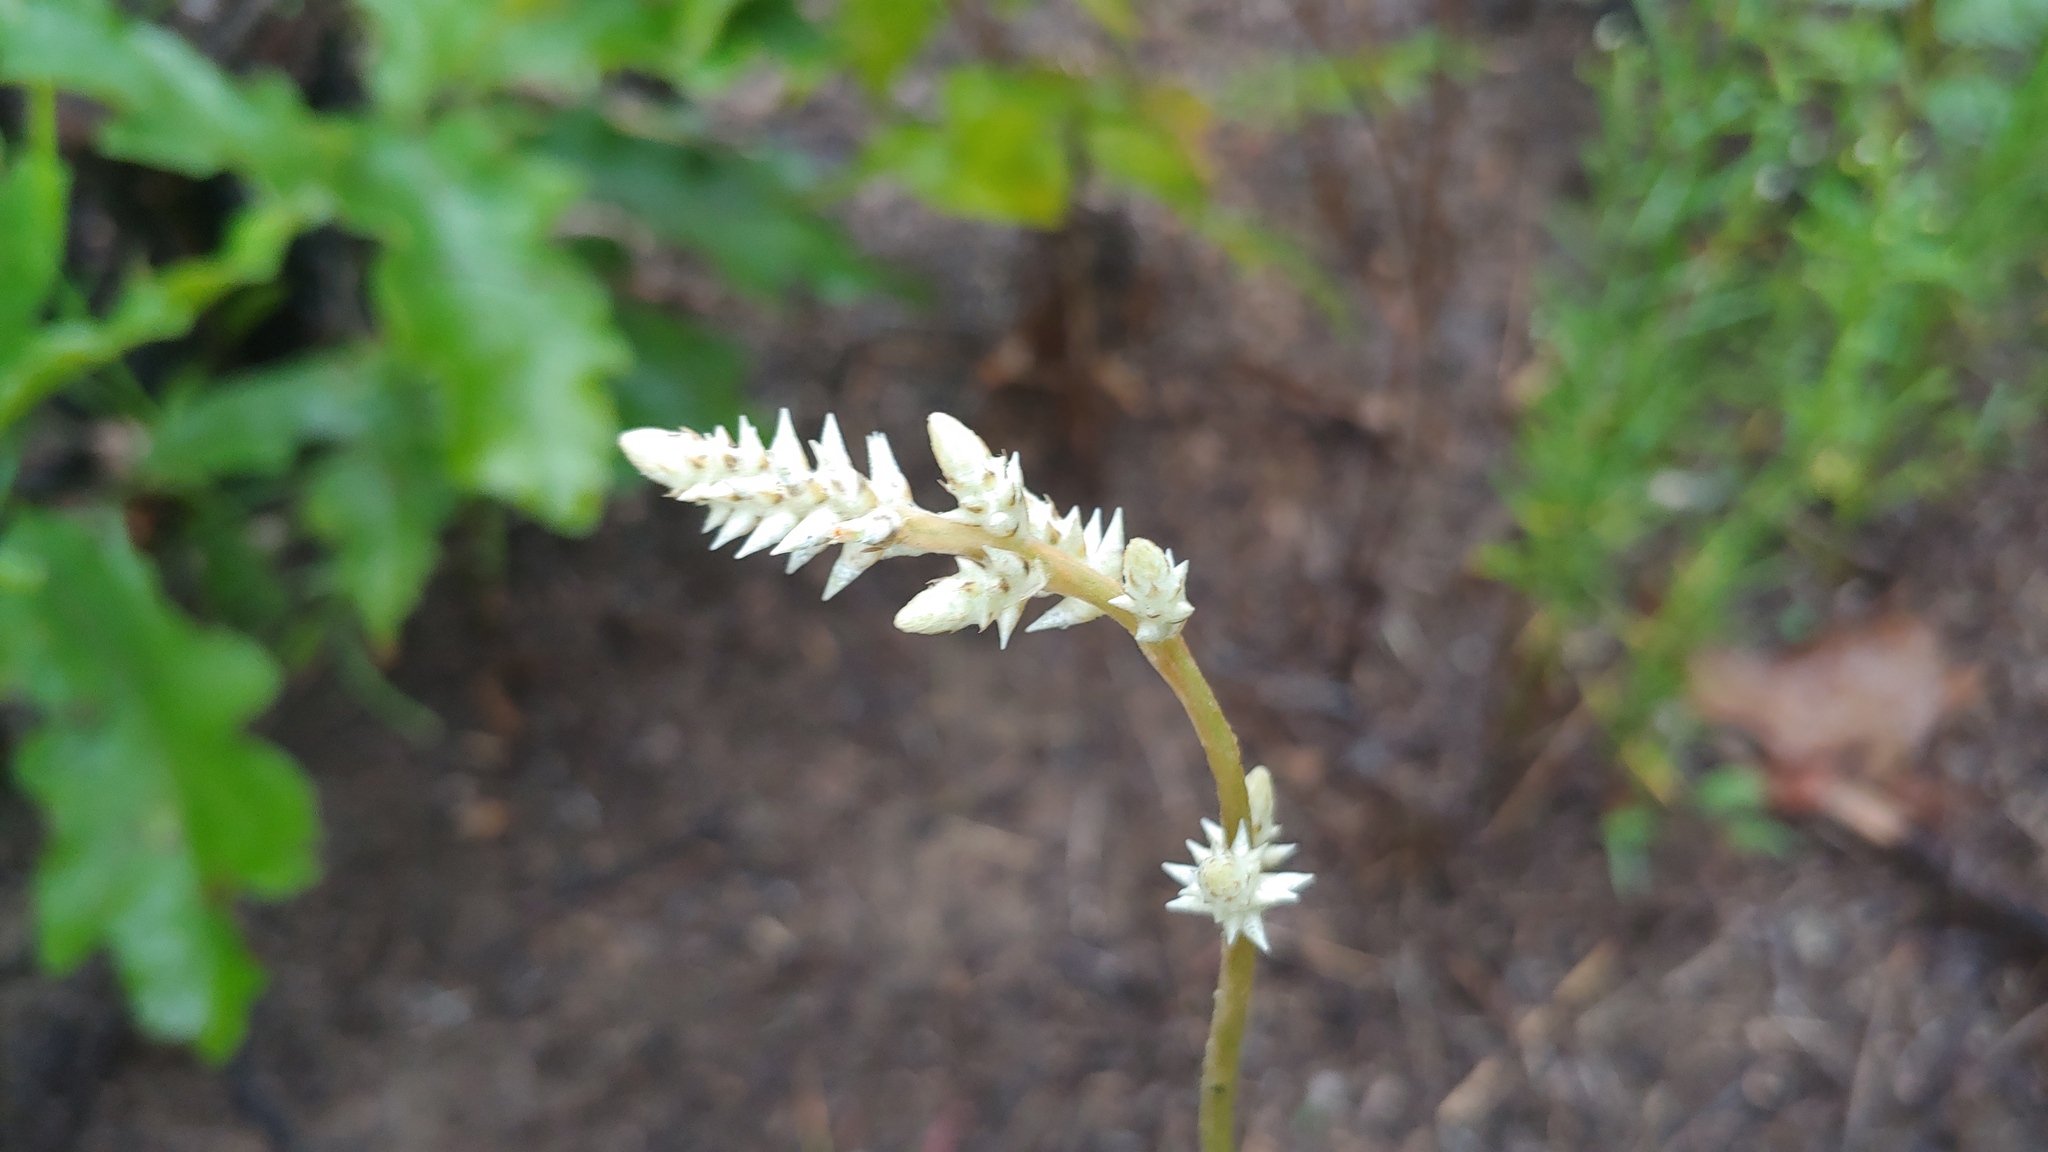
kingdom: Plantae
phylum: Tracheophyta
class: Magnoliopsida
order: Caryophyllales
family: Amaranthaceae
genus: Froelichia
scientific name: Froelichia floridana
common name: Florida snake-cotton
